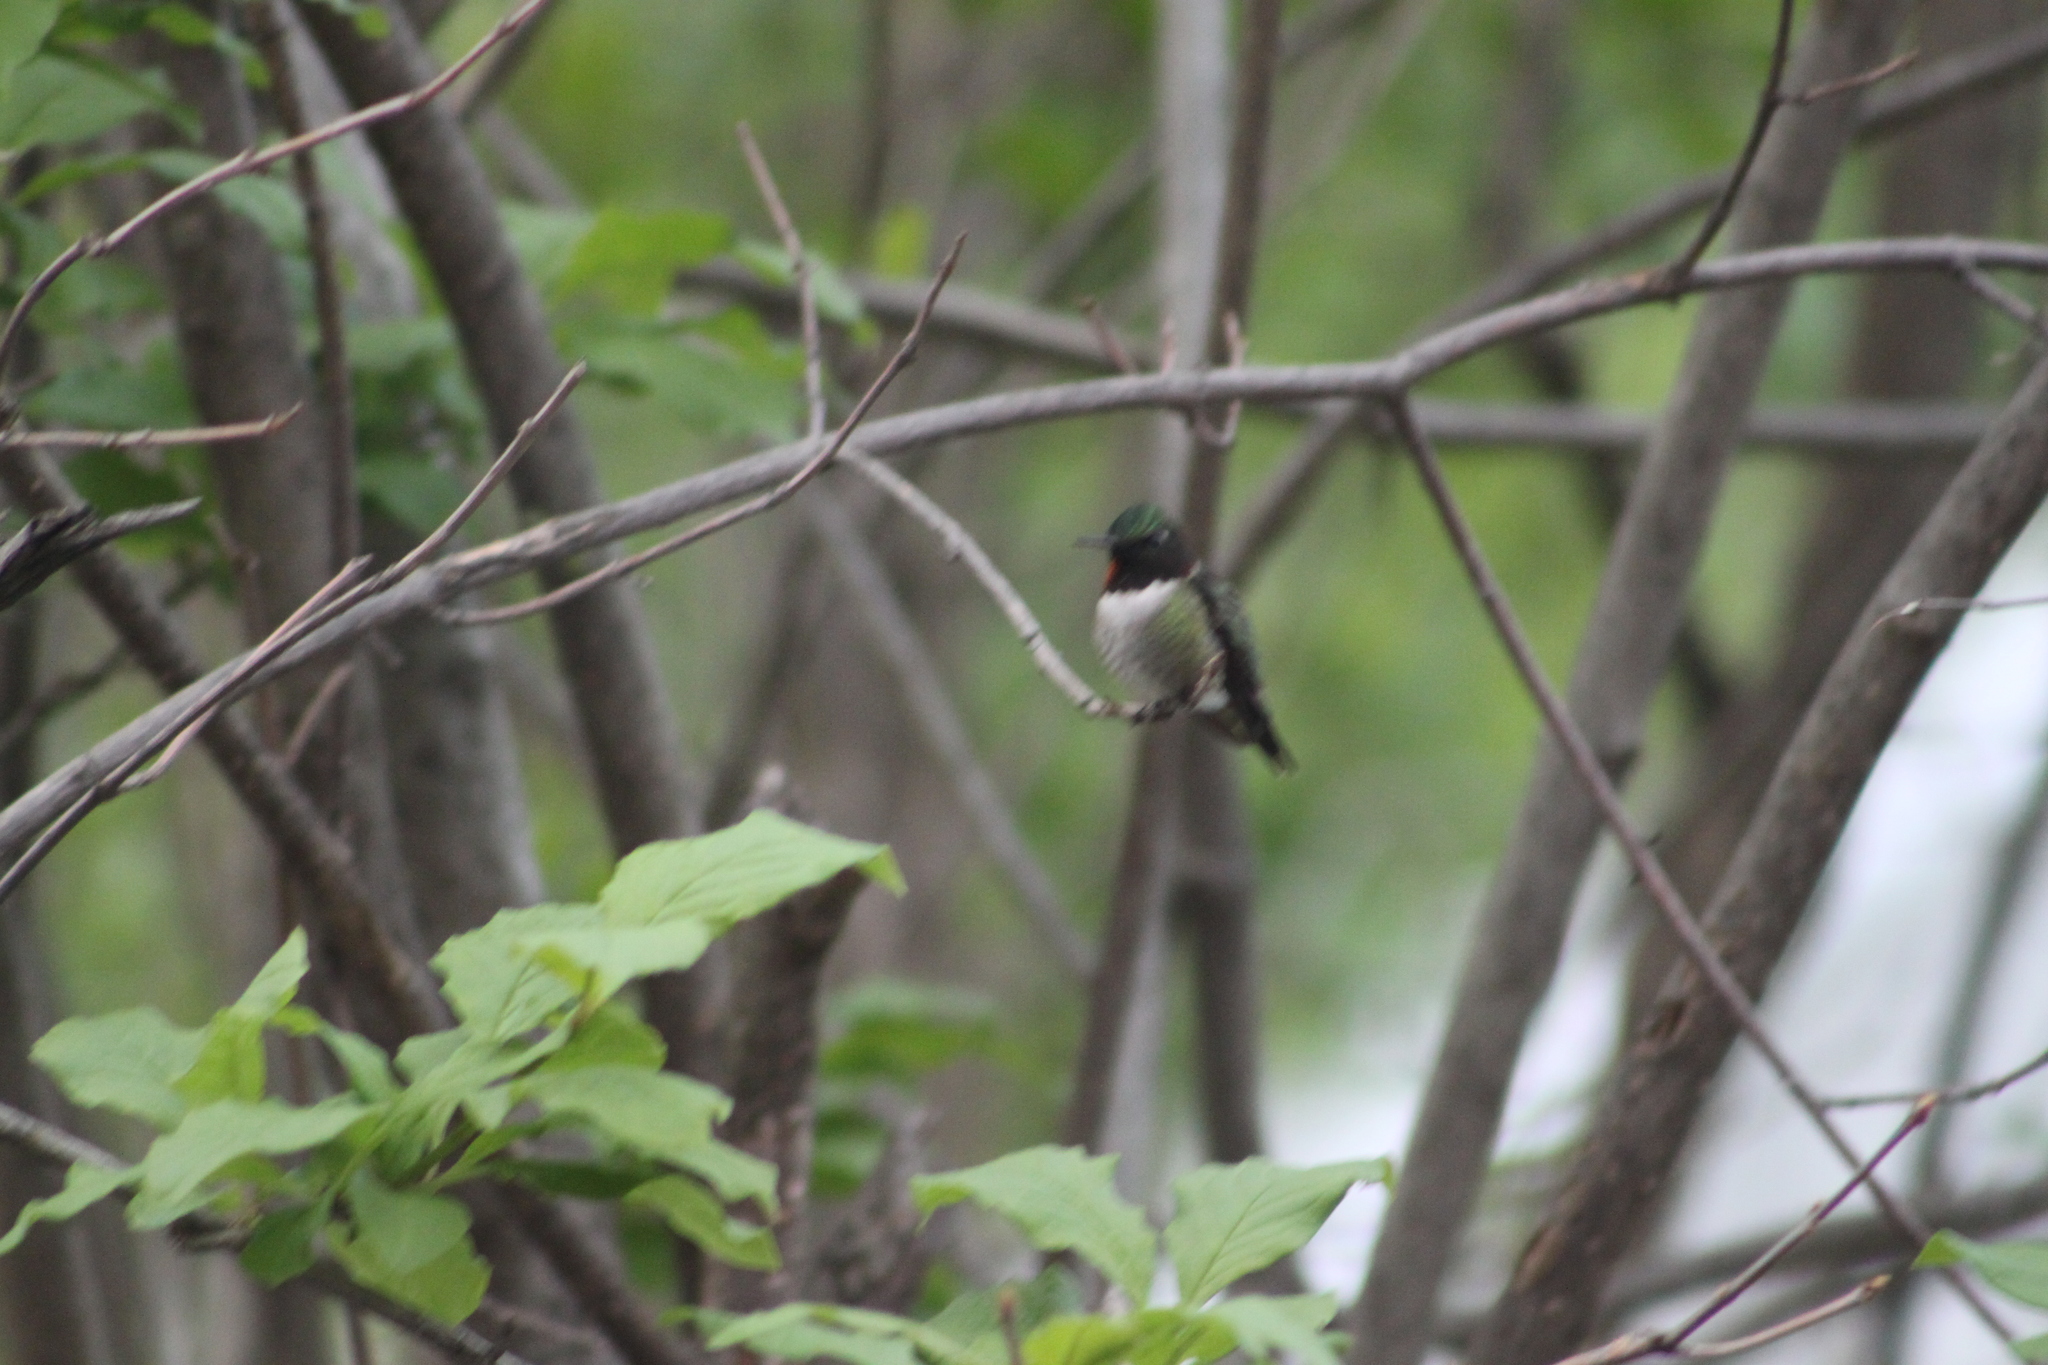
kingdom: Animalia
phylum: Chordata
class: Aves
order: Apodiformes
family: Trochilidae
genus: Archilochus
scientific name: Archilochus colubris
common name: Ruby-throated hummingbird
